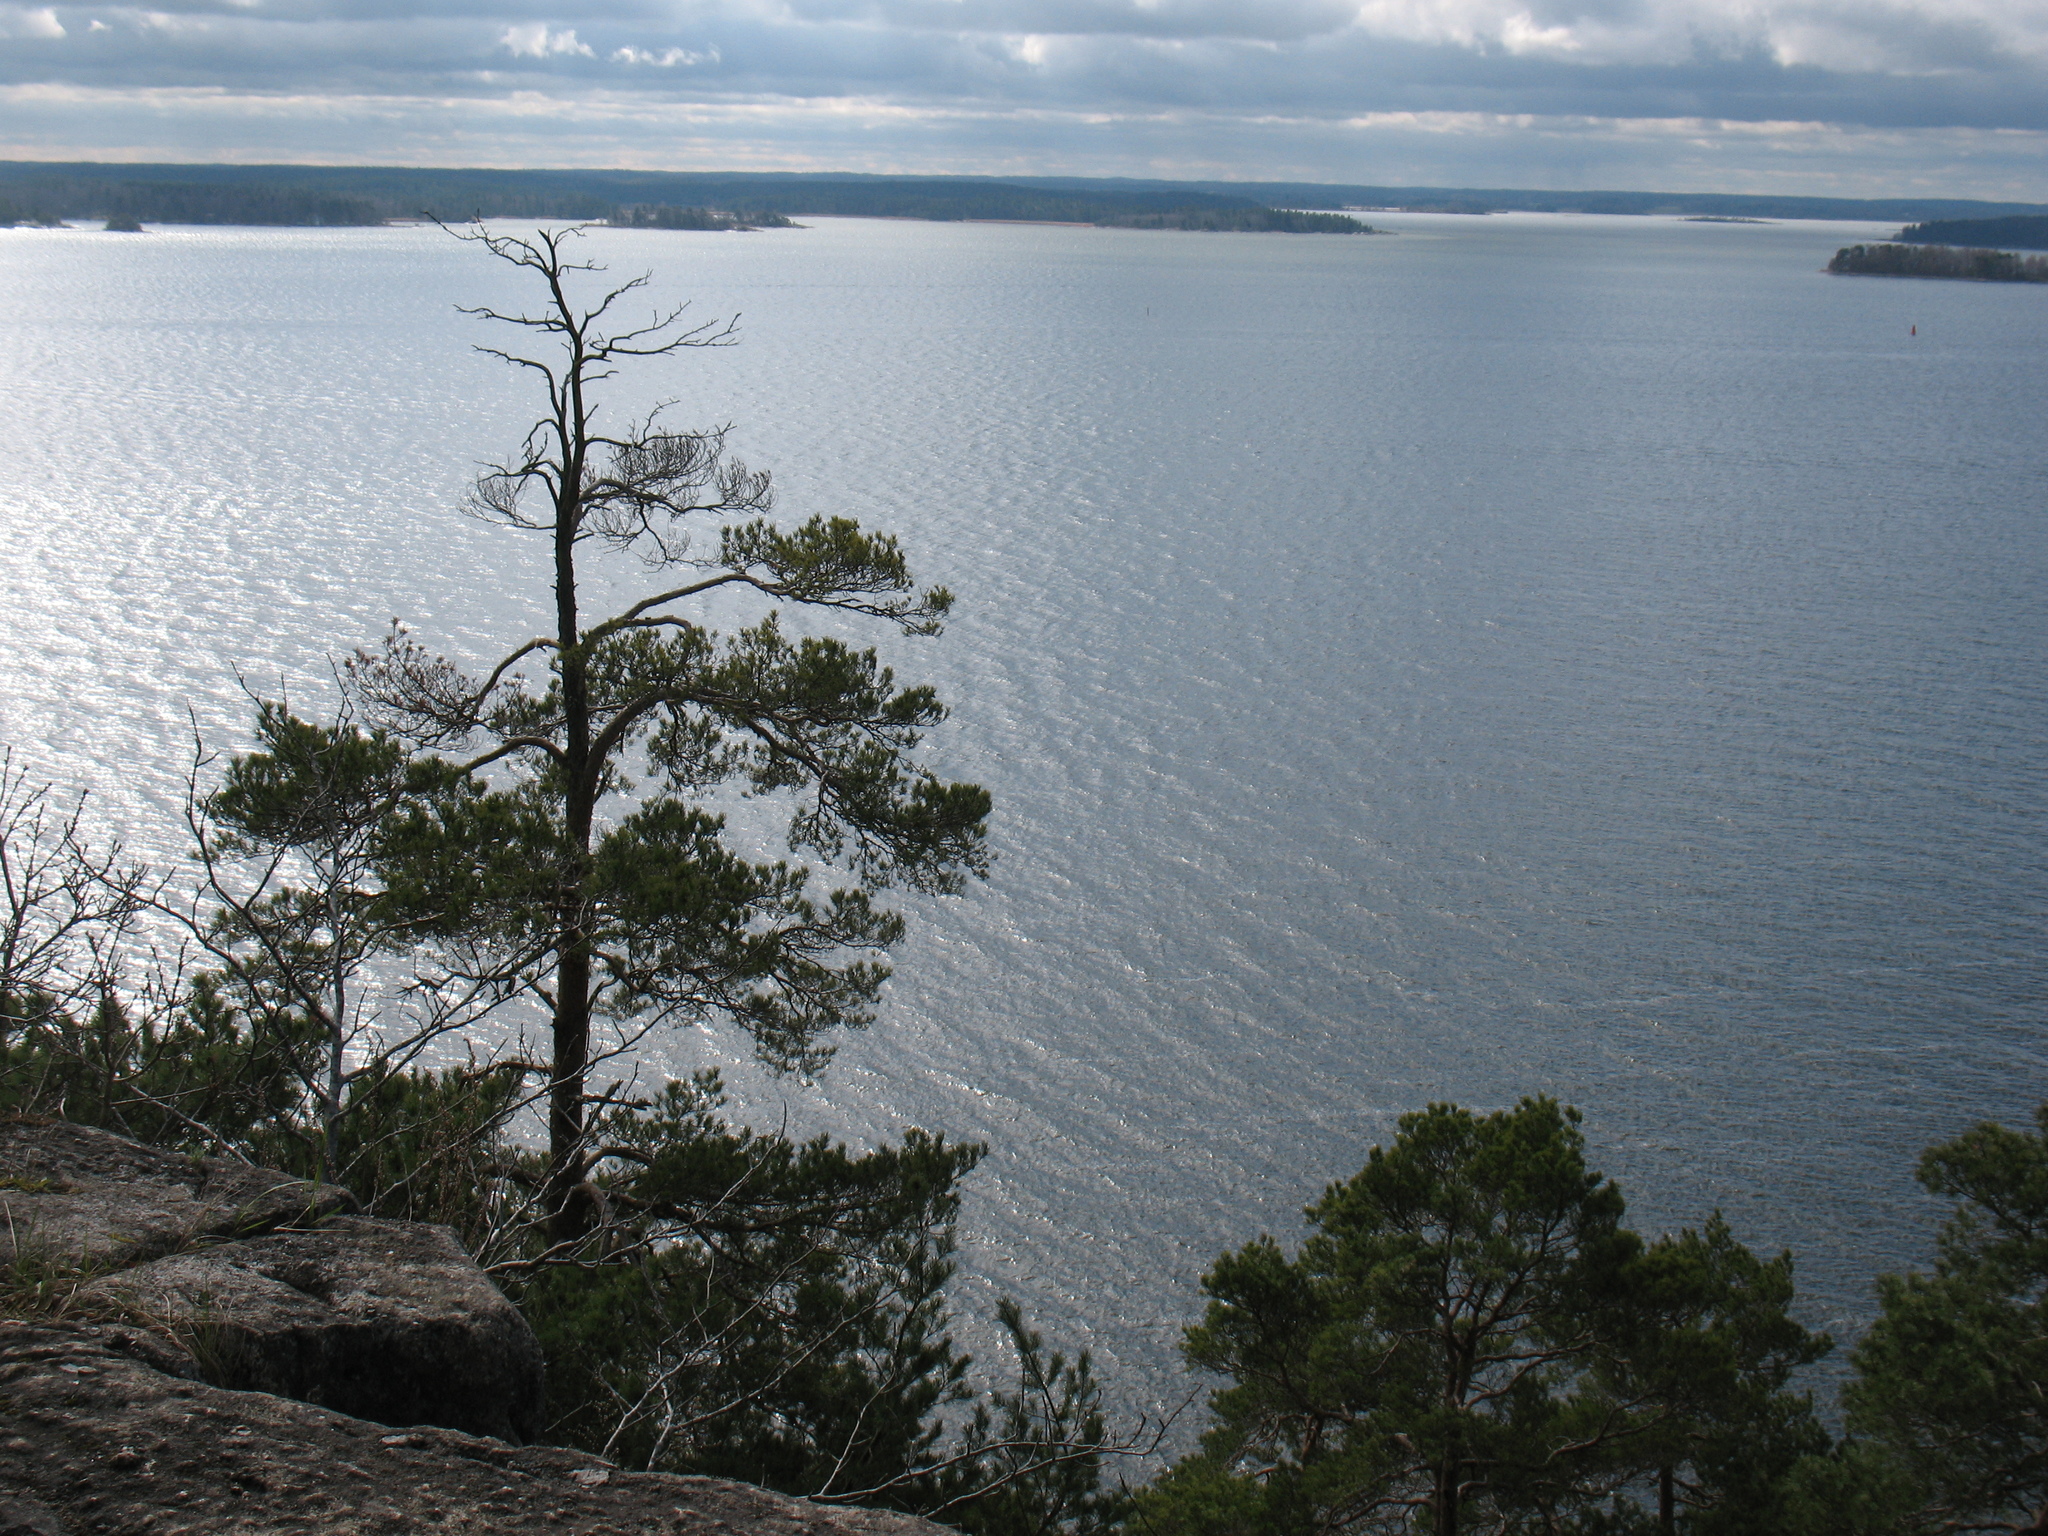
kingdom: Plantae
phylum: Tracheophyta
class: Pinopsida
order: Pinales
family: Pinaceae
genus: Pinus
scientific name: Pinus sylvestris
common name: Scots pine
